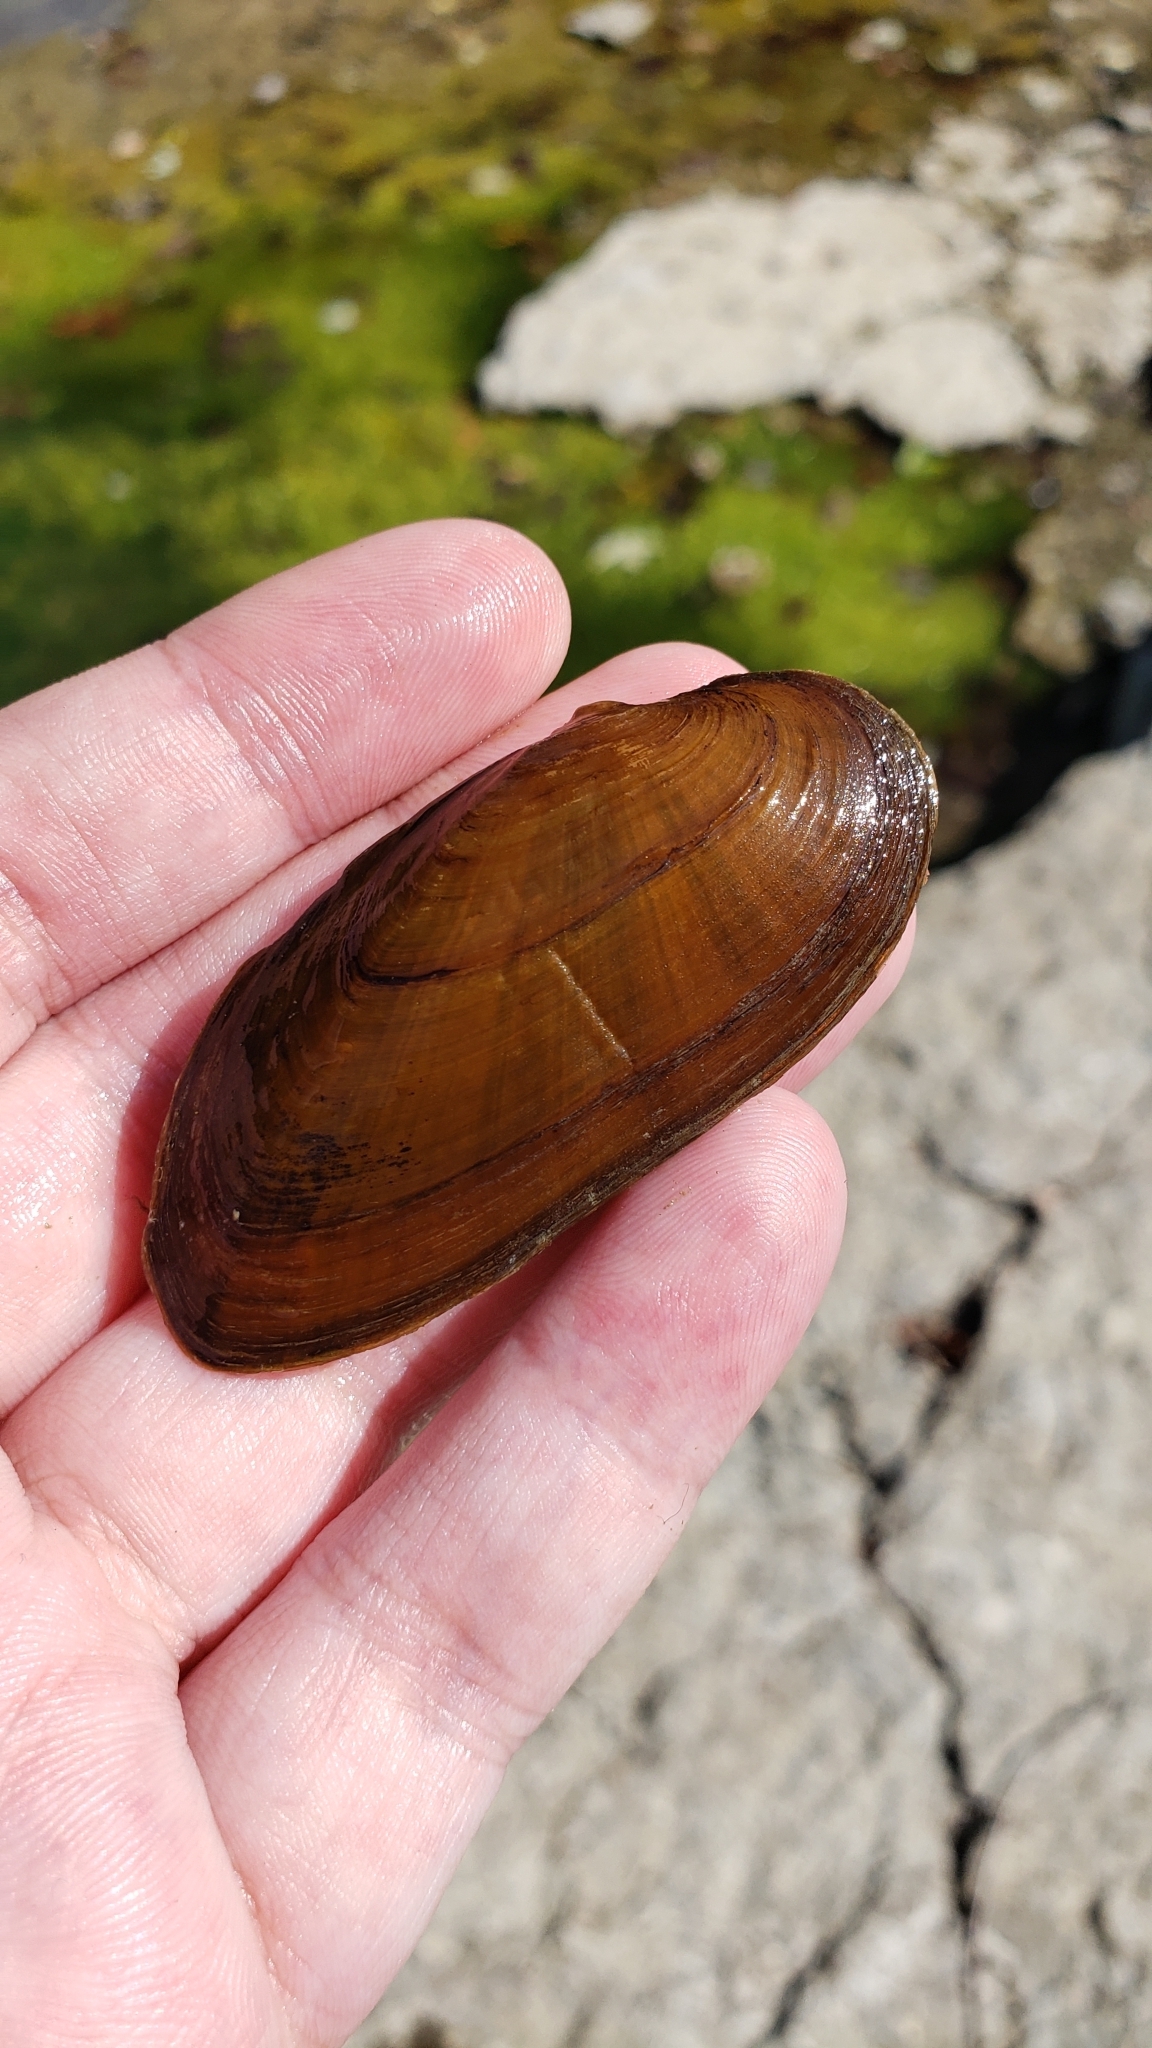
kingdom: Animalia
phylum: Mollusca
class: Bivalvia
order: Unionida
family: Unionidae
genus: Eurynia
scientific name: Eurynia dilatata
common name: Spike
